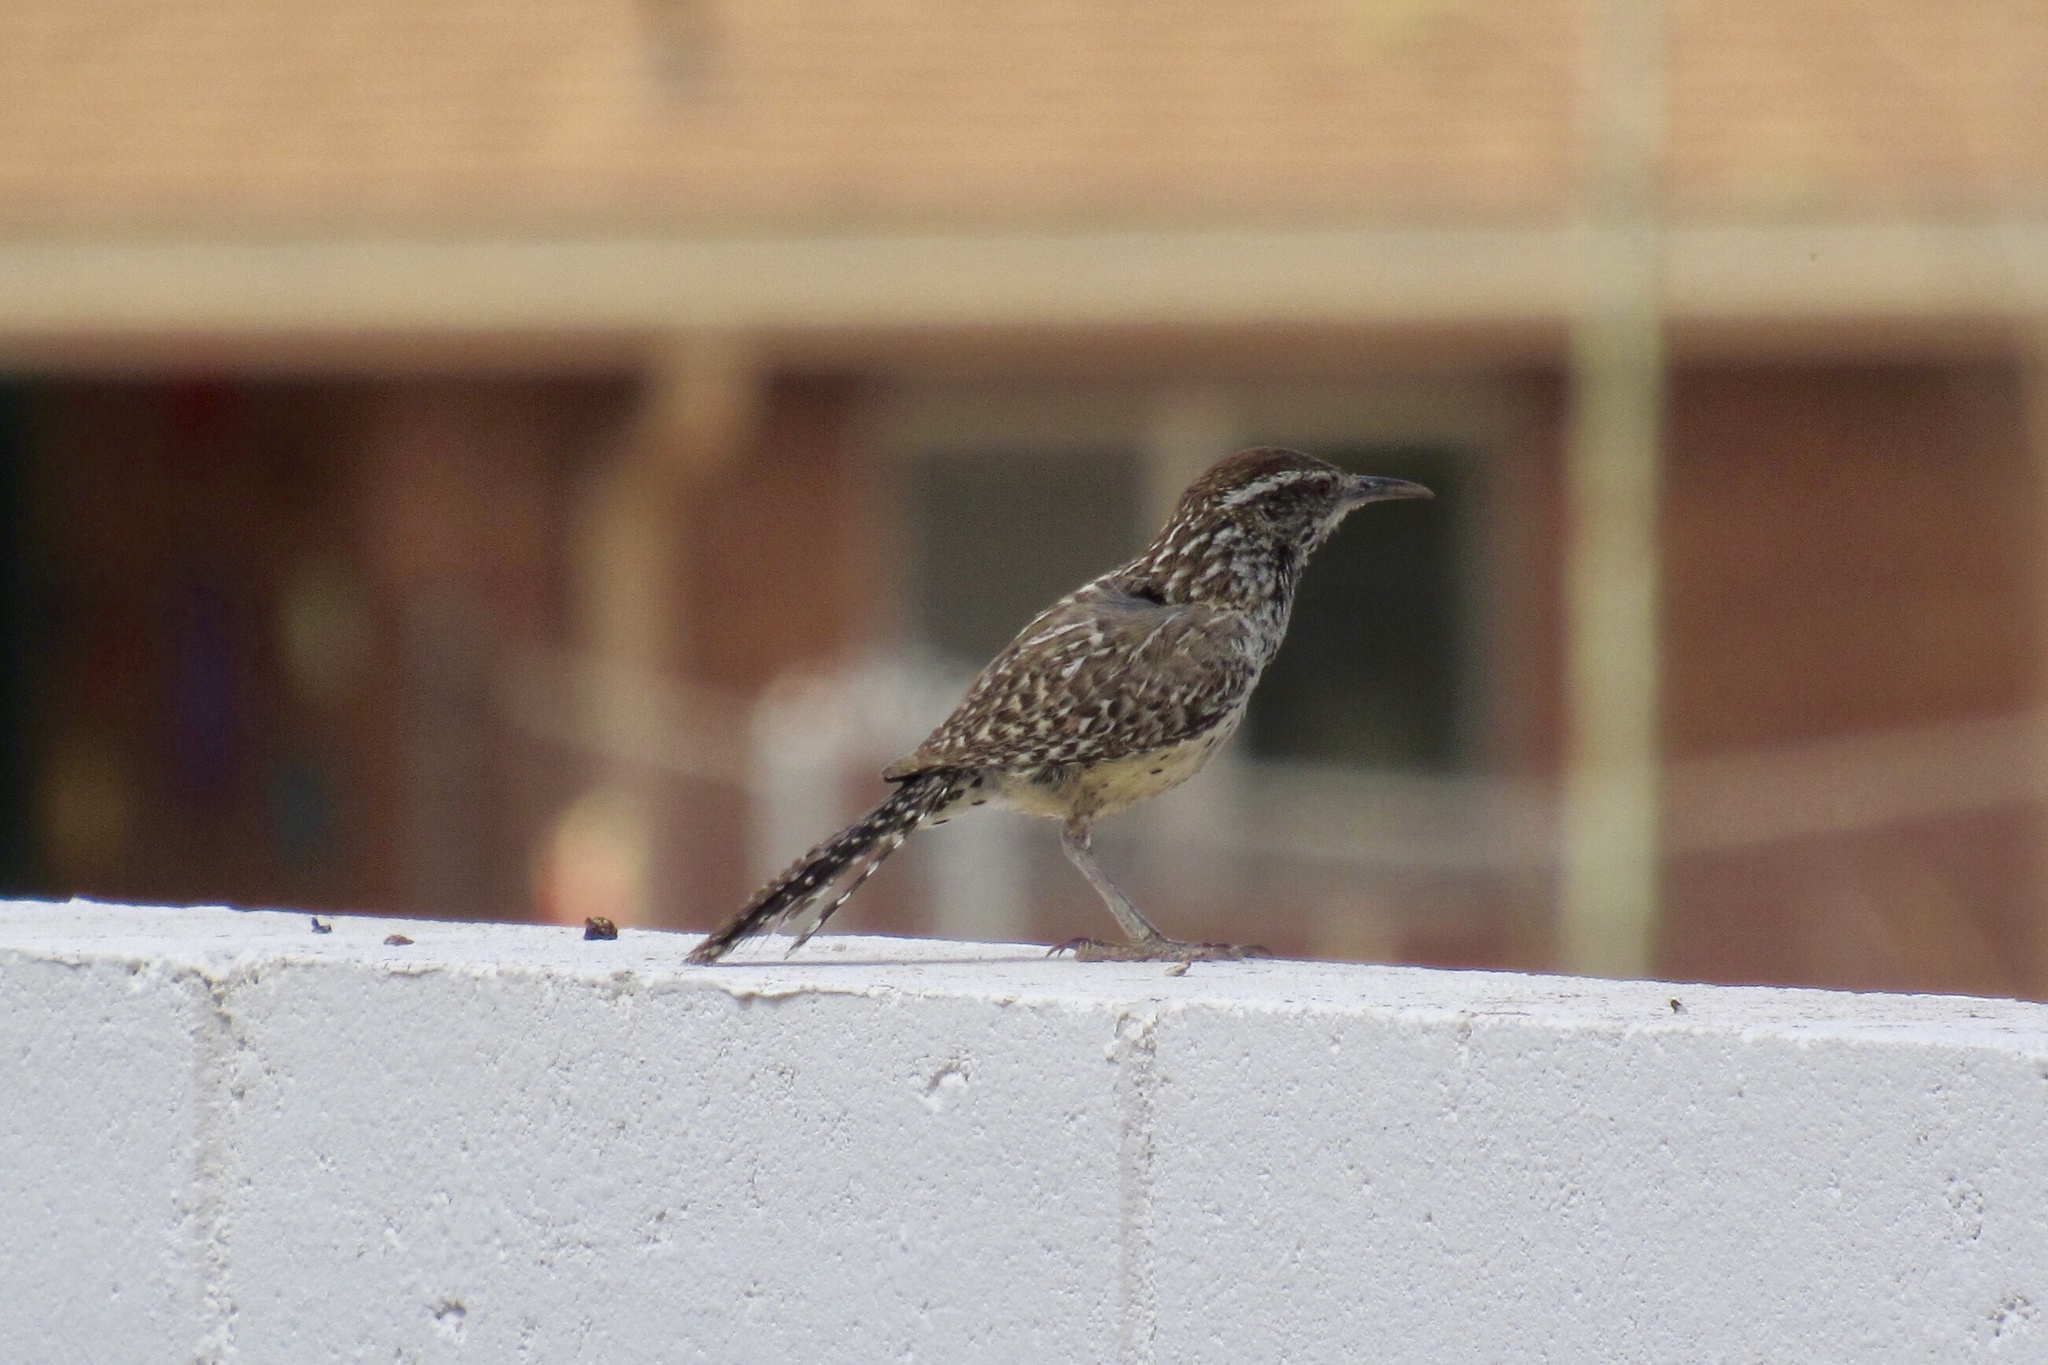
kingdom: Animalia
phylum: Chordata
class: Aves
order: Passeriformes
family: Troglodytidae
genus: Campylorhynchus
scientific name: Campylorhynchus brunneicapillus
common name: Cactus wren
